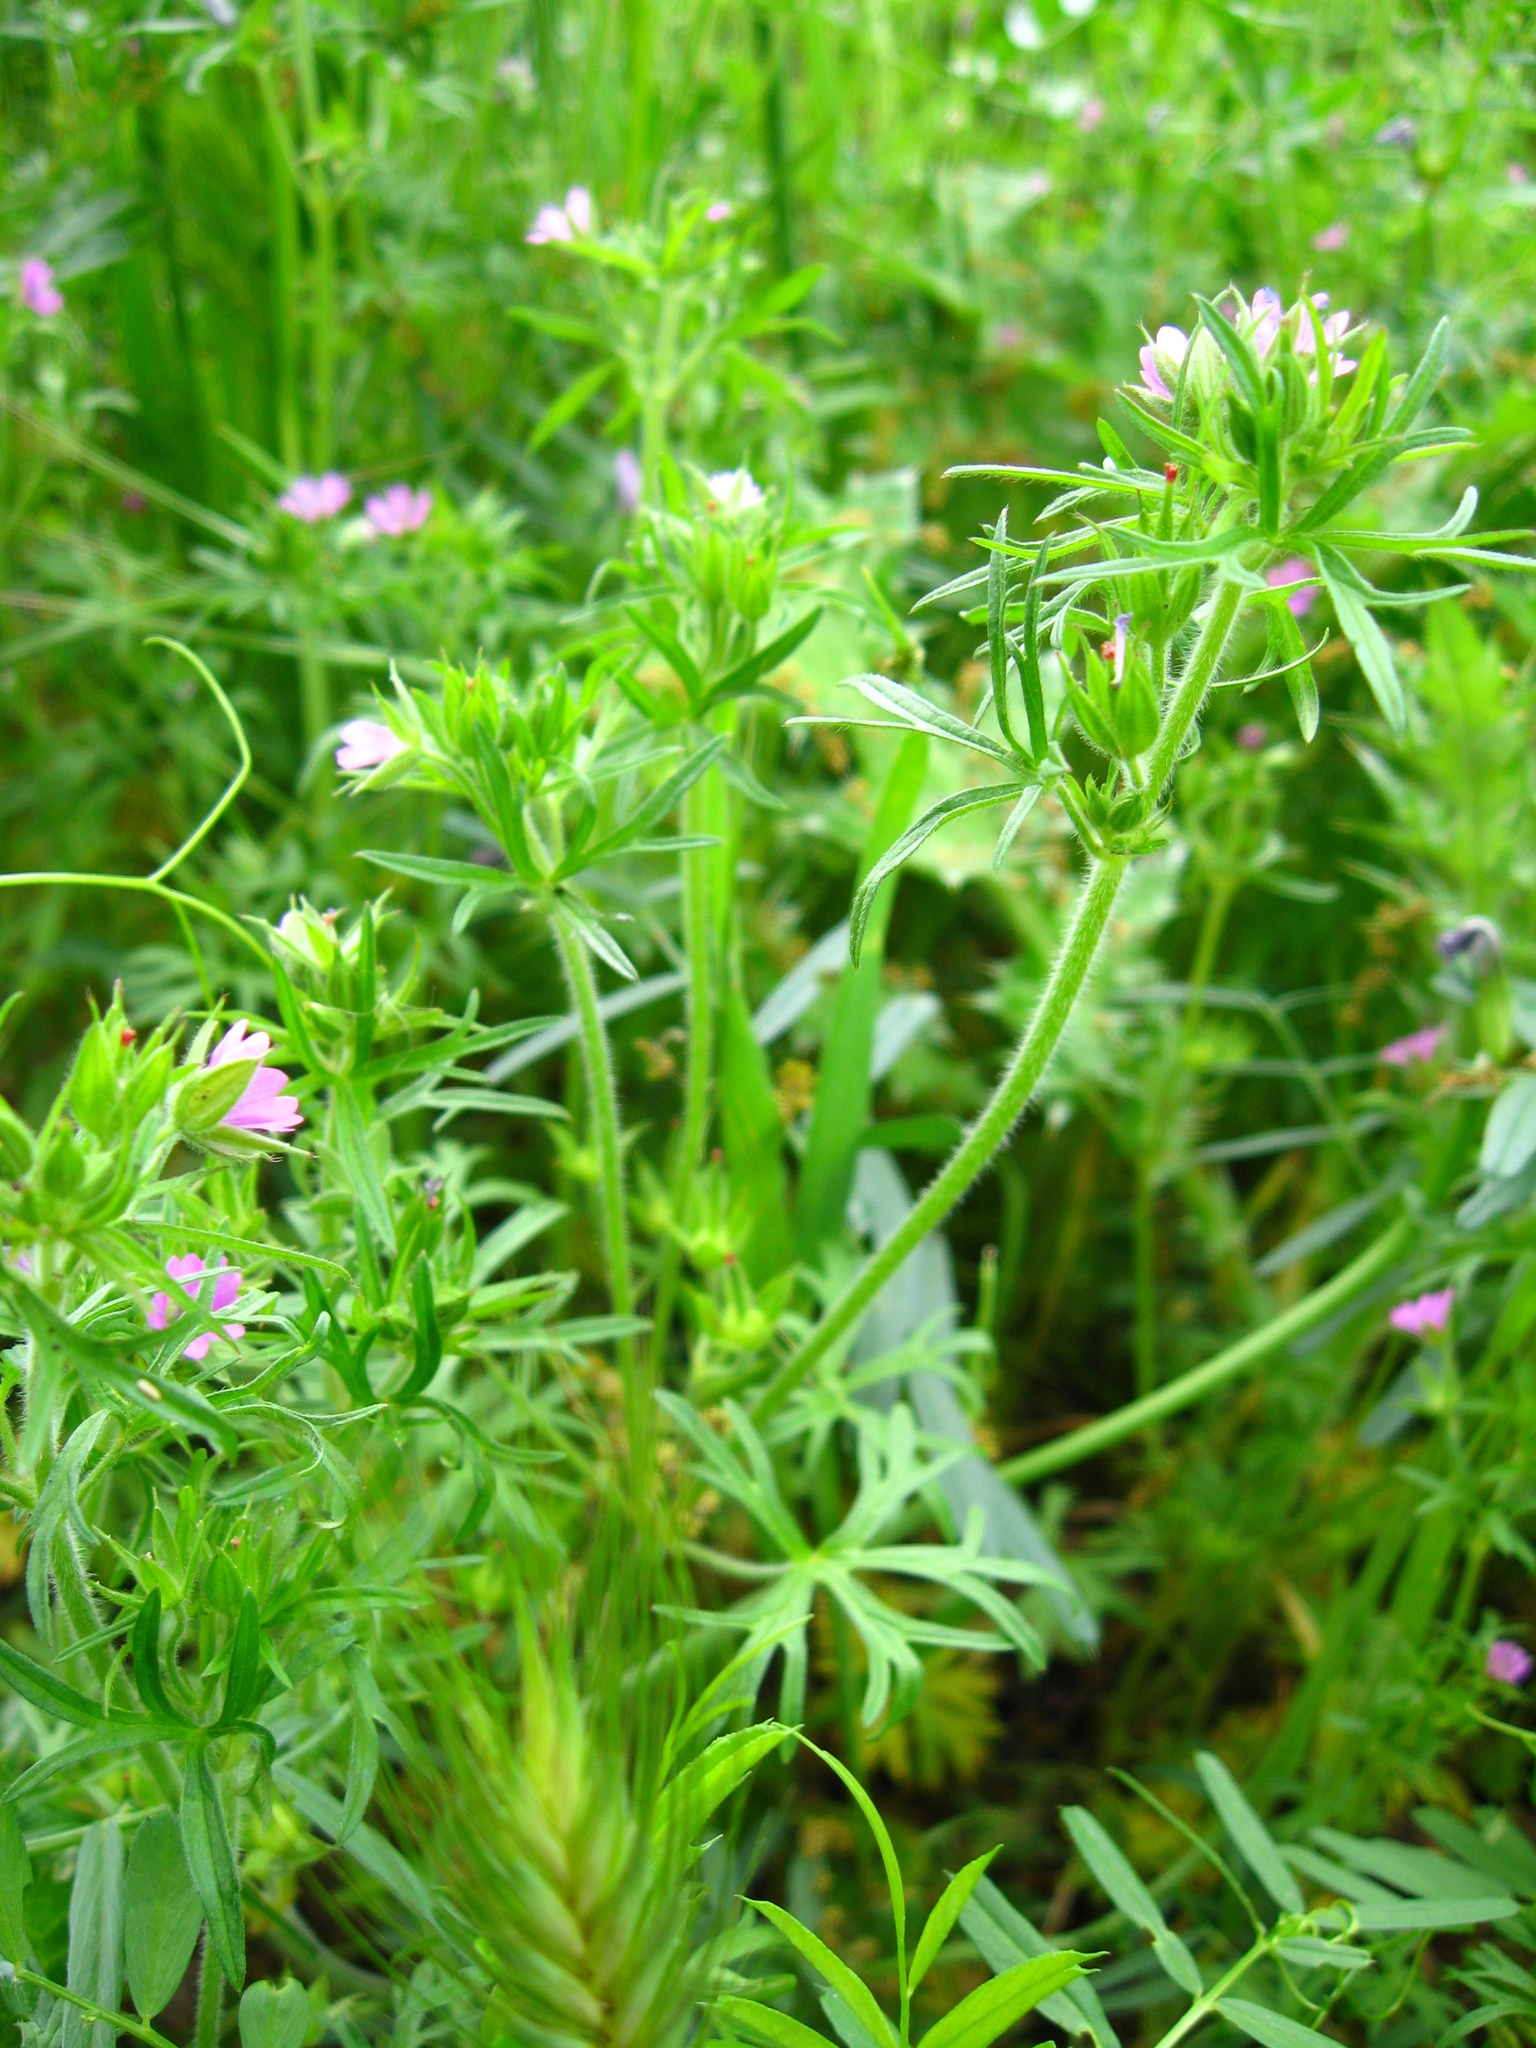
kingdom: Plantae
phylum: Tracheophyta
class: Magnoliopsida
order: Geraniales
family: Geraniaceae
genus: Geranium
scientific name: Geranium dissectum
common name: Cut-leaved crane's-bill
